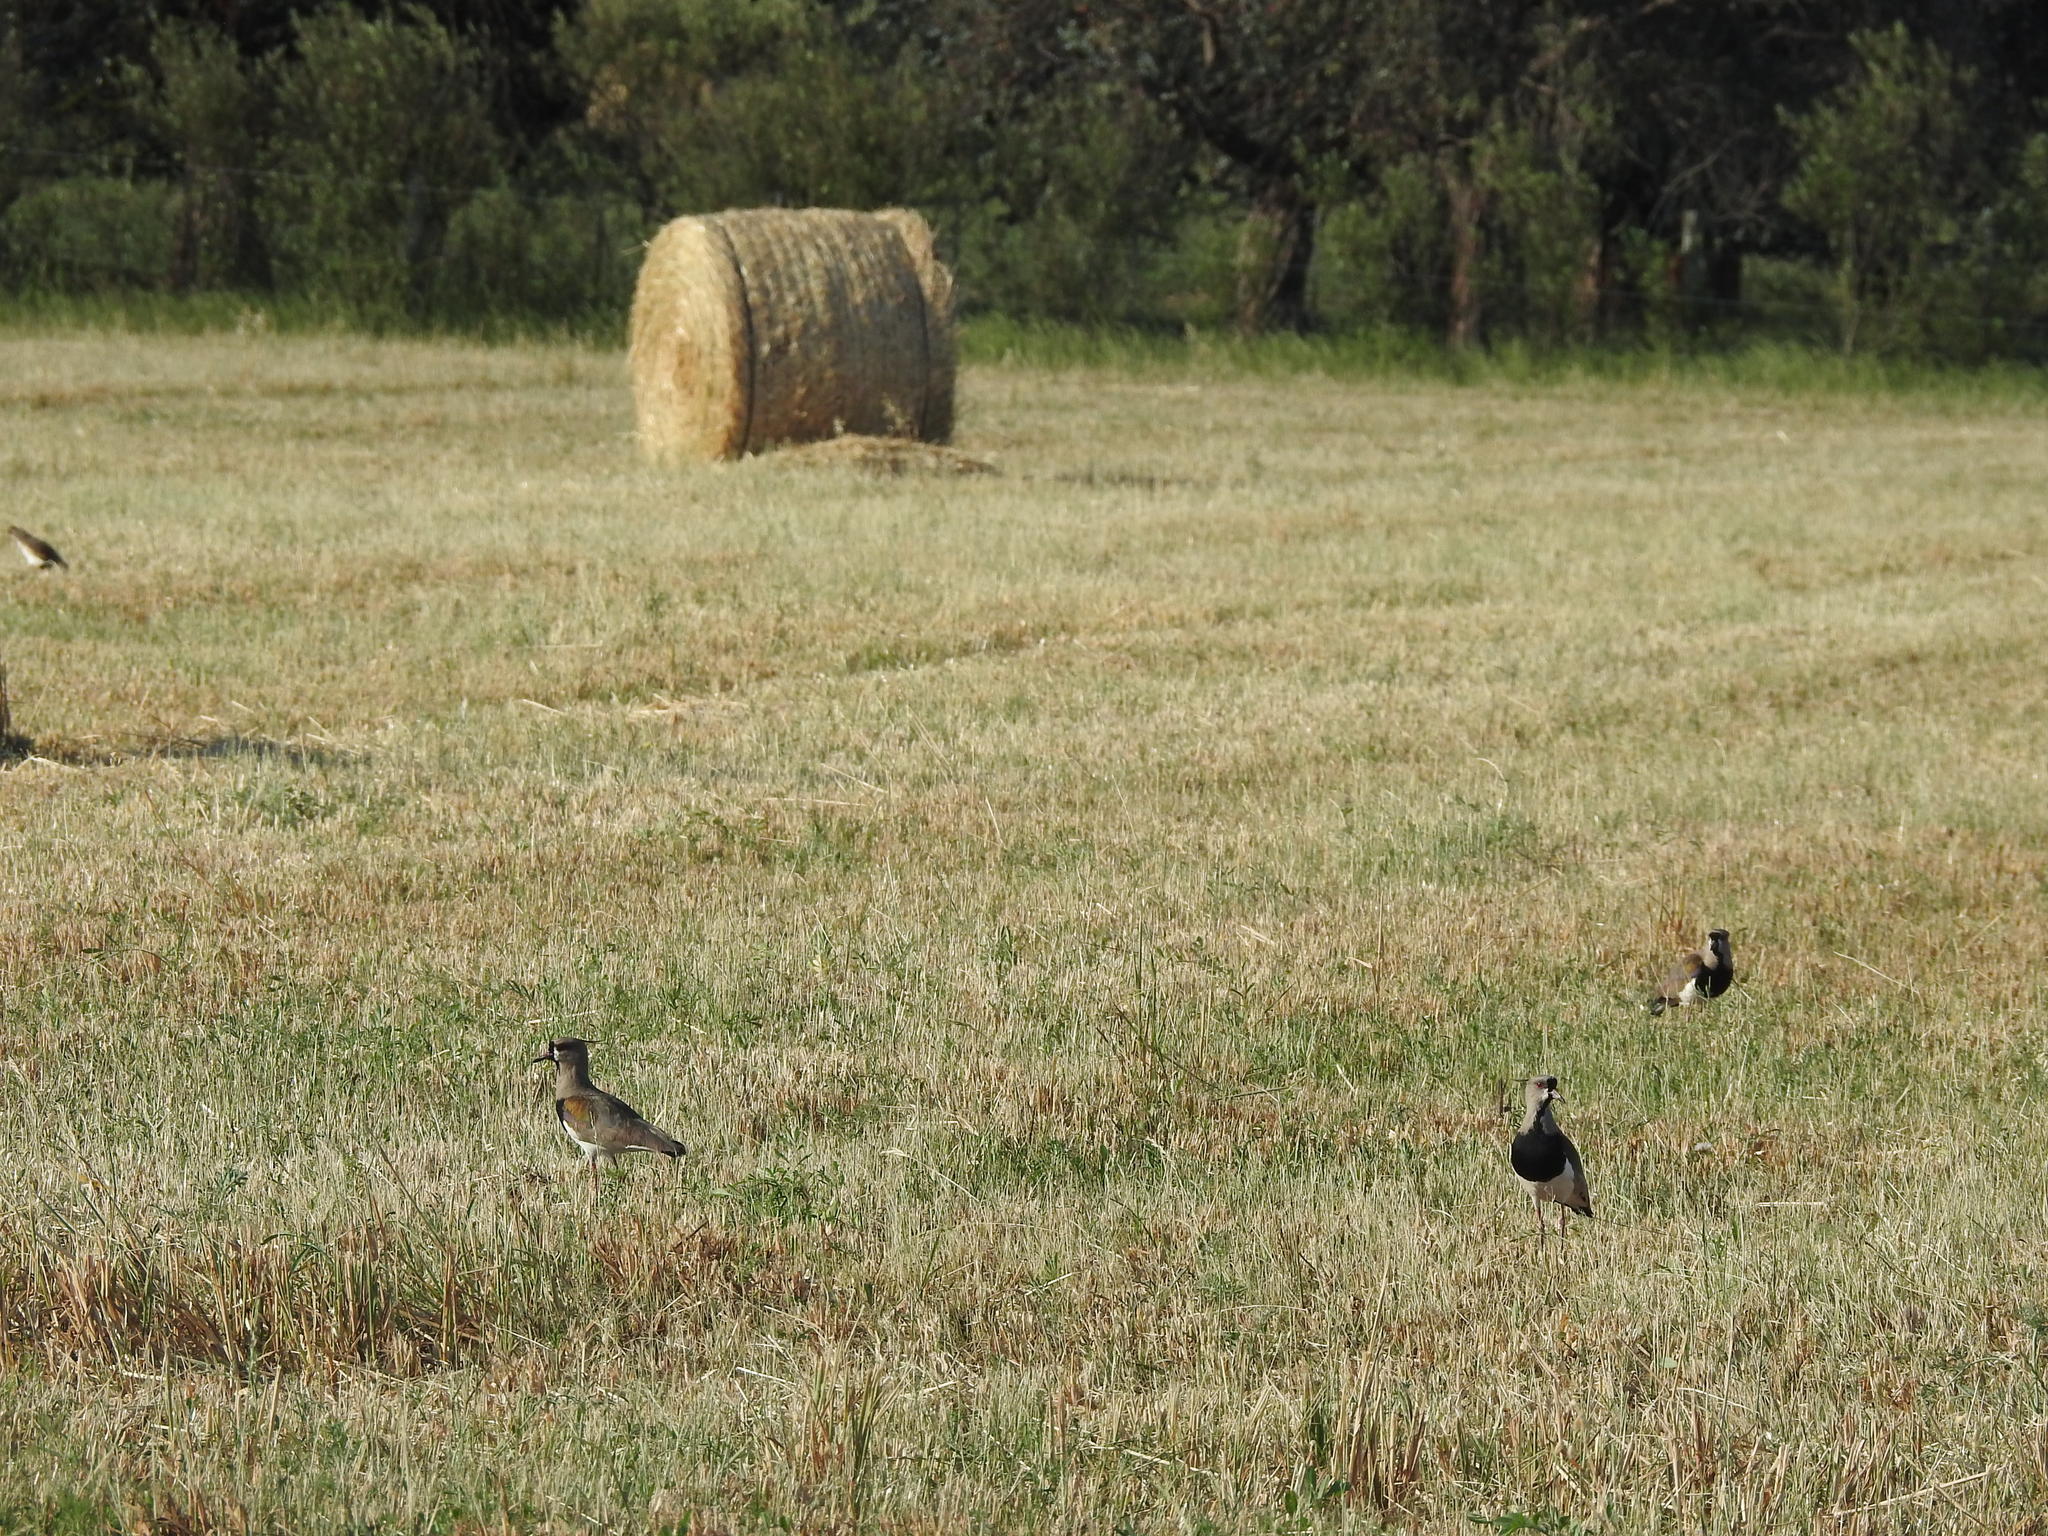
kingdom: Animalia
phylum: Chordata
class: Aves
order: Charadriiformes
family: Charadriidae
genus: Vanellus
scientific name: Vanellus chilensis
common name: Southern lapwing
